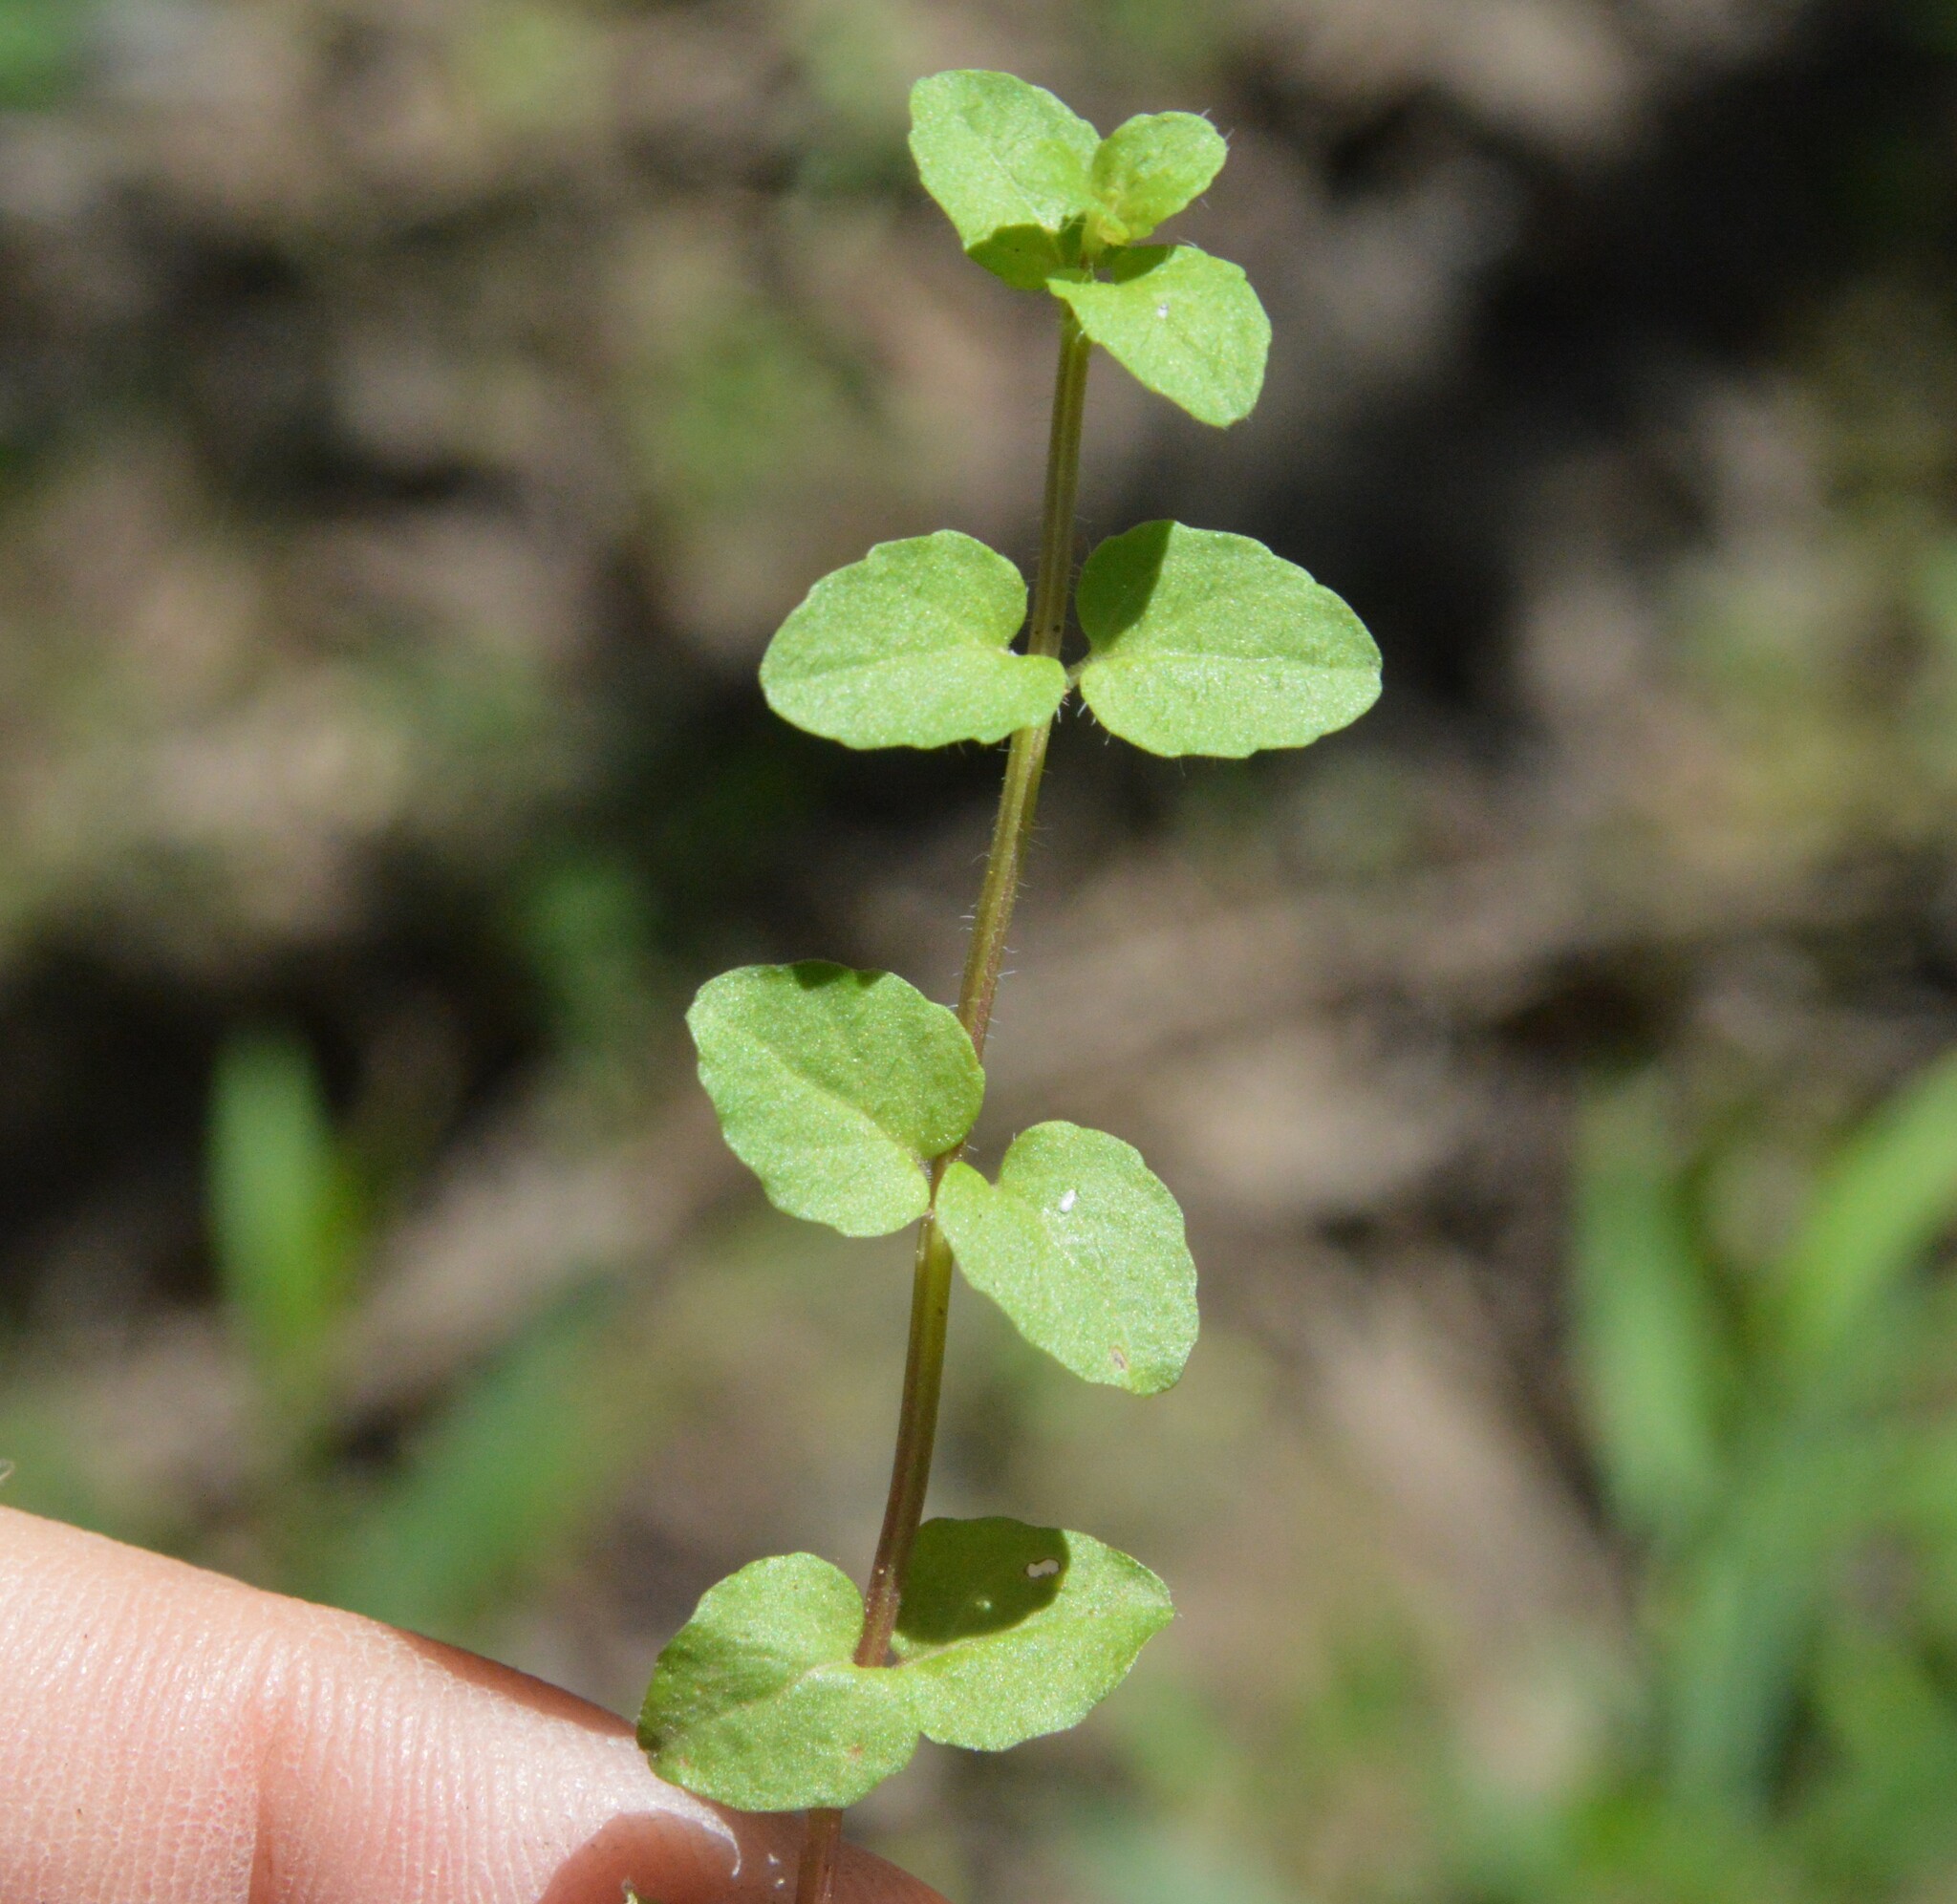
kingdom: Plantae
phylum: Tracheophyta
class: Magnoliopsida
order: Lamiales
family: Lamiaceae
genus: Clinopodium
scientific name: Clinopodium brownei
